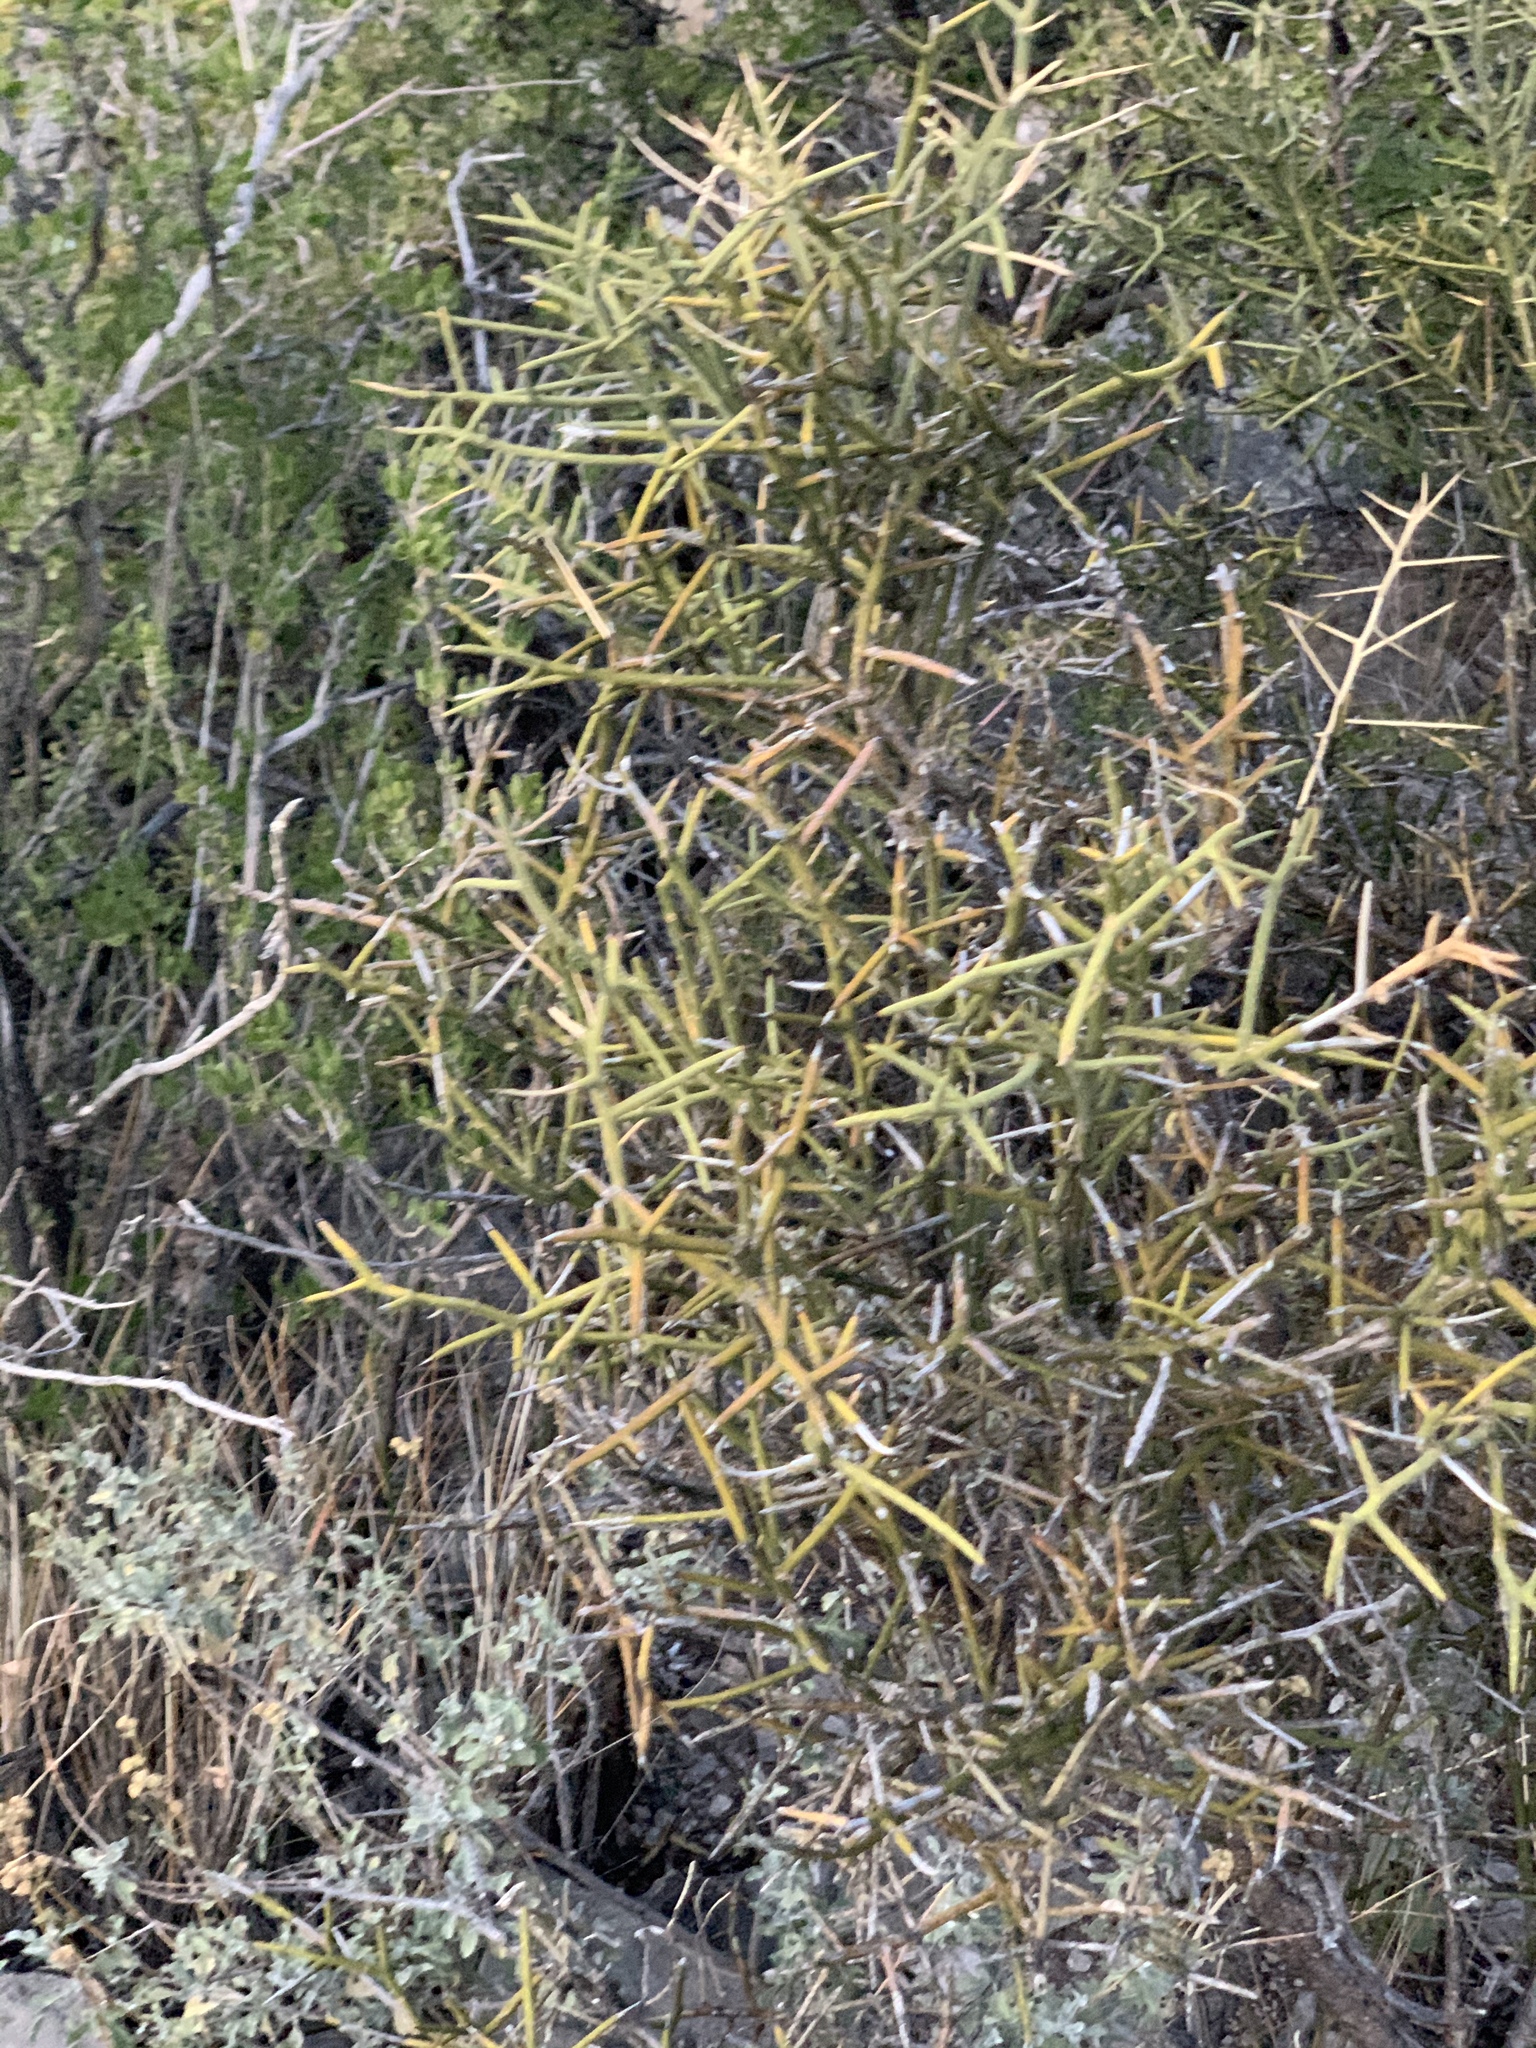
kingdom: Plantae
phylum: Tracheophyta
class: Magnoliopsida
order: Brassicales
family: Koeberliniaceae
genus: Koeberlinia
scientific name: Koeberlinia spinosa
